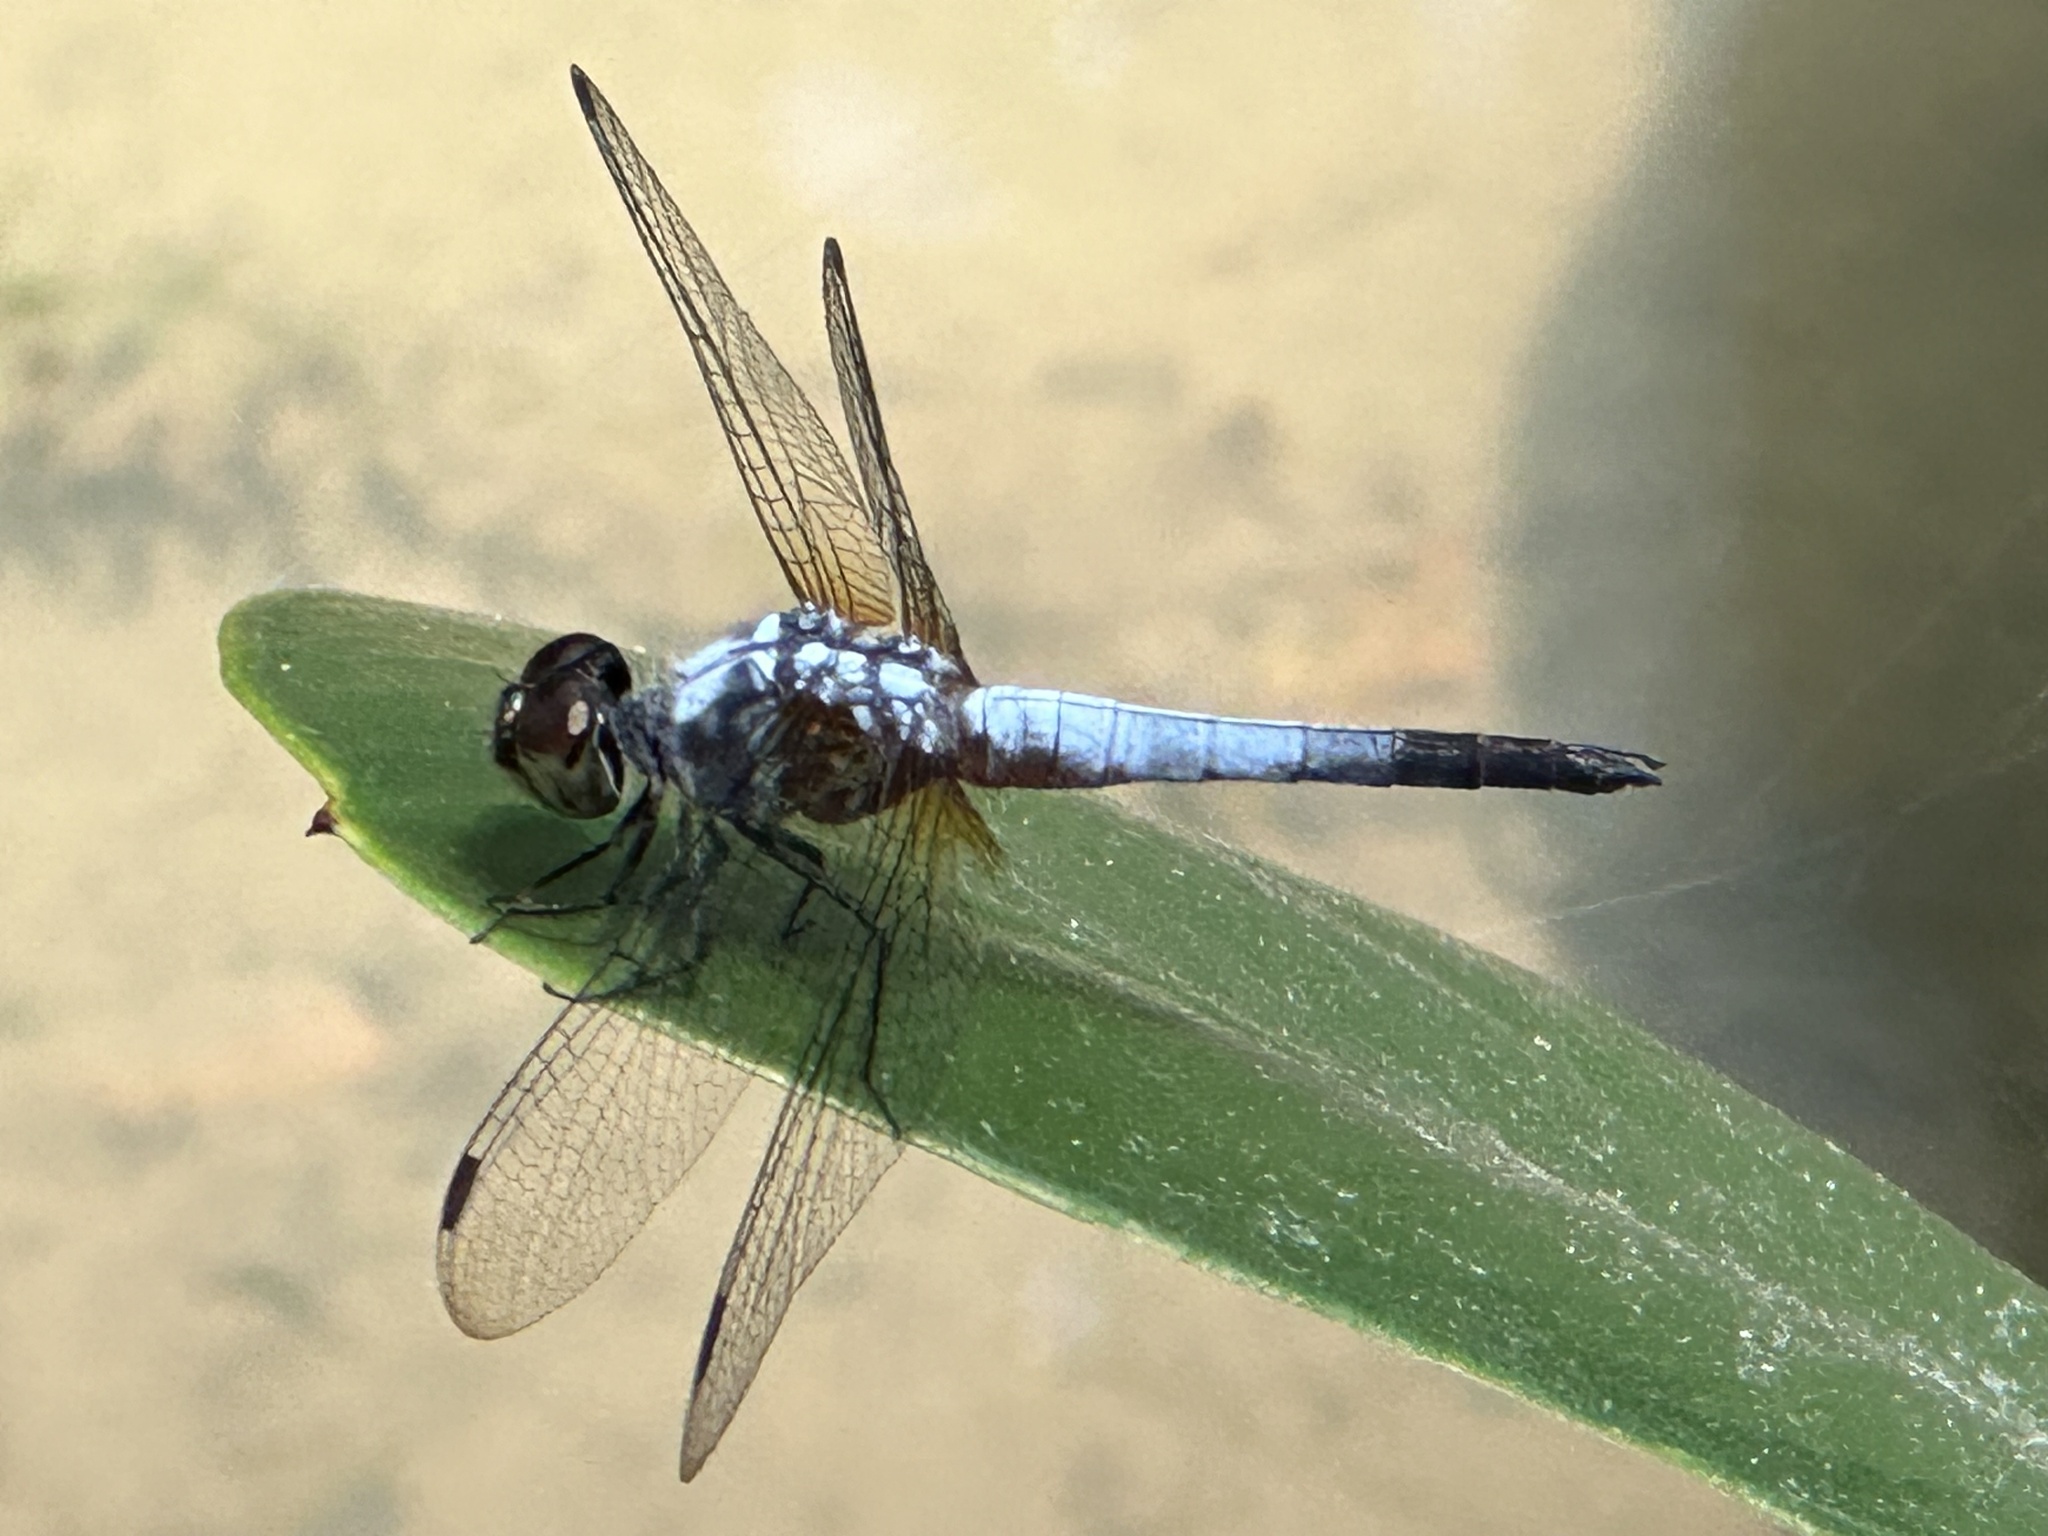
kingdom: Animalia
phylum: Arthropoda
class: Insecta
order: Odonata
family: Libellulidae
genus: Brachydiplax
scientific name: Brachydiplax chalybea
